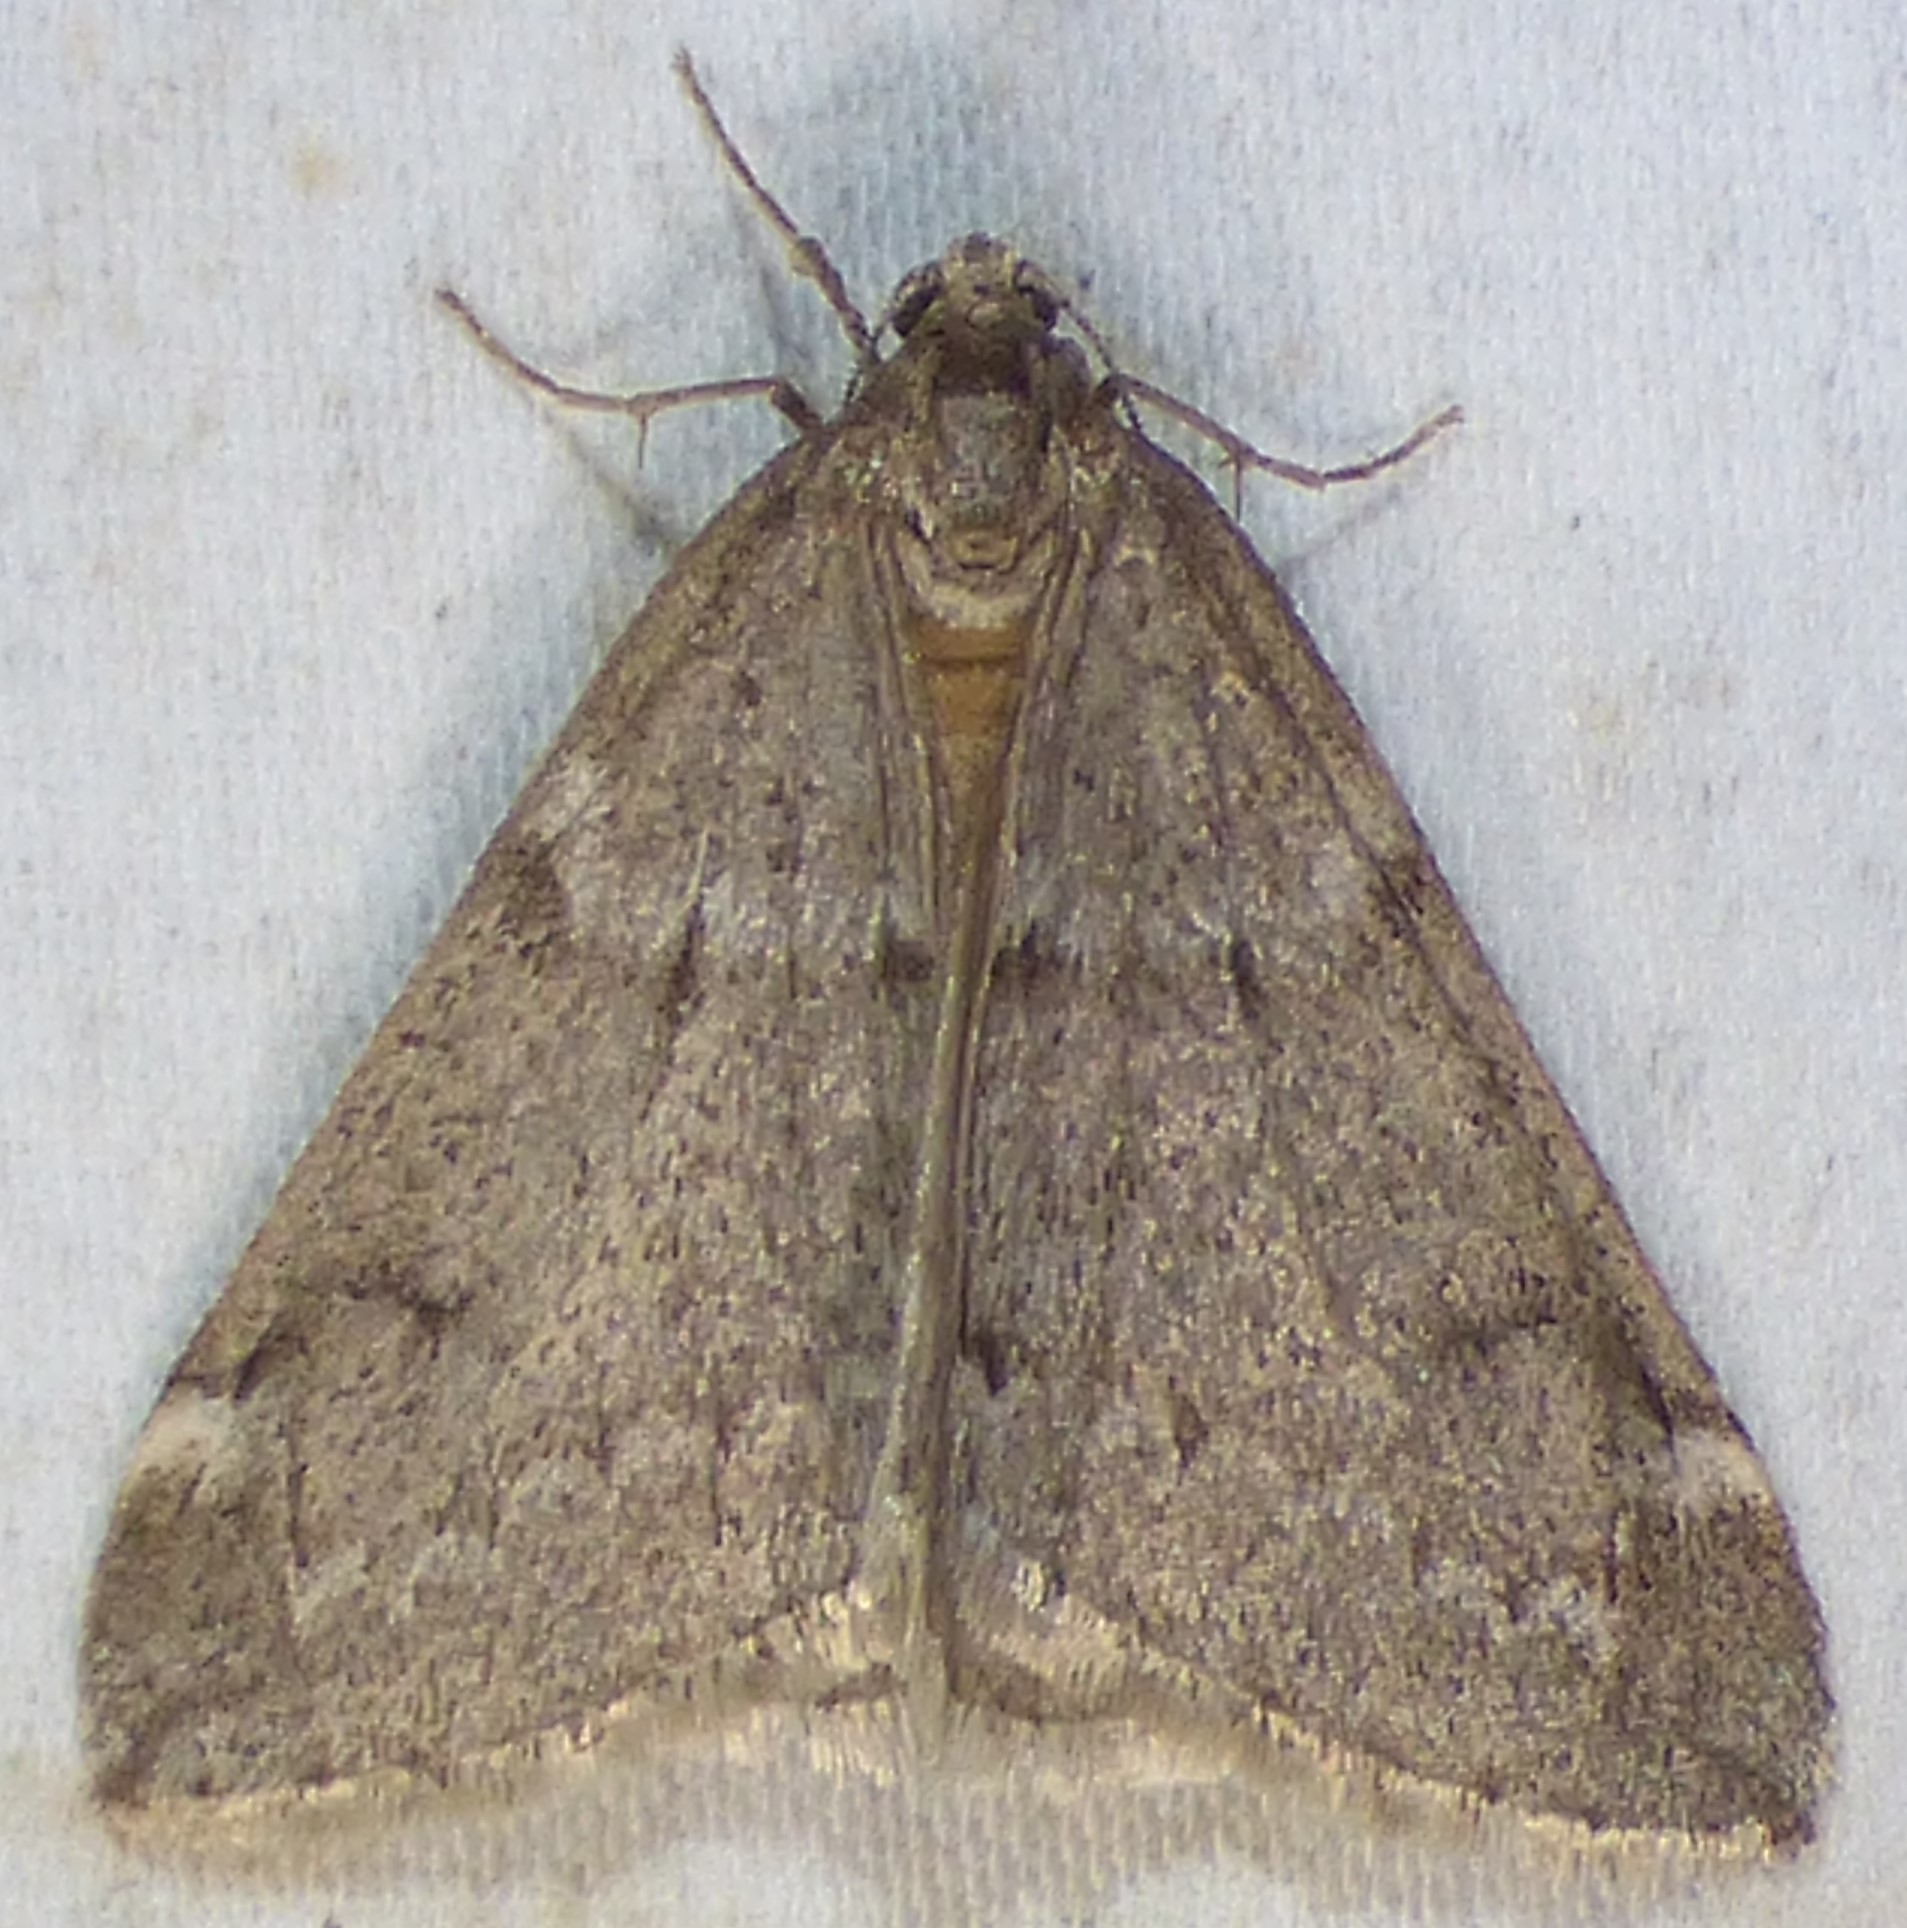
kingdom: Animalia
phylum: Arthropoda
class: Insecta
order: Lepidoptera
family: Geometridae
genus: Alsophila
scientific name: Alsophila pometaria
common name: Fall cankerworm
